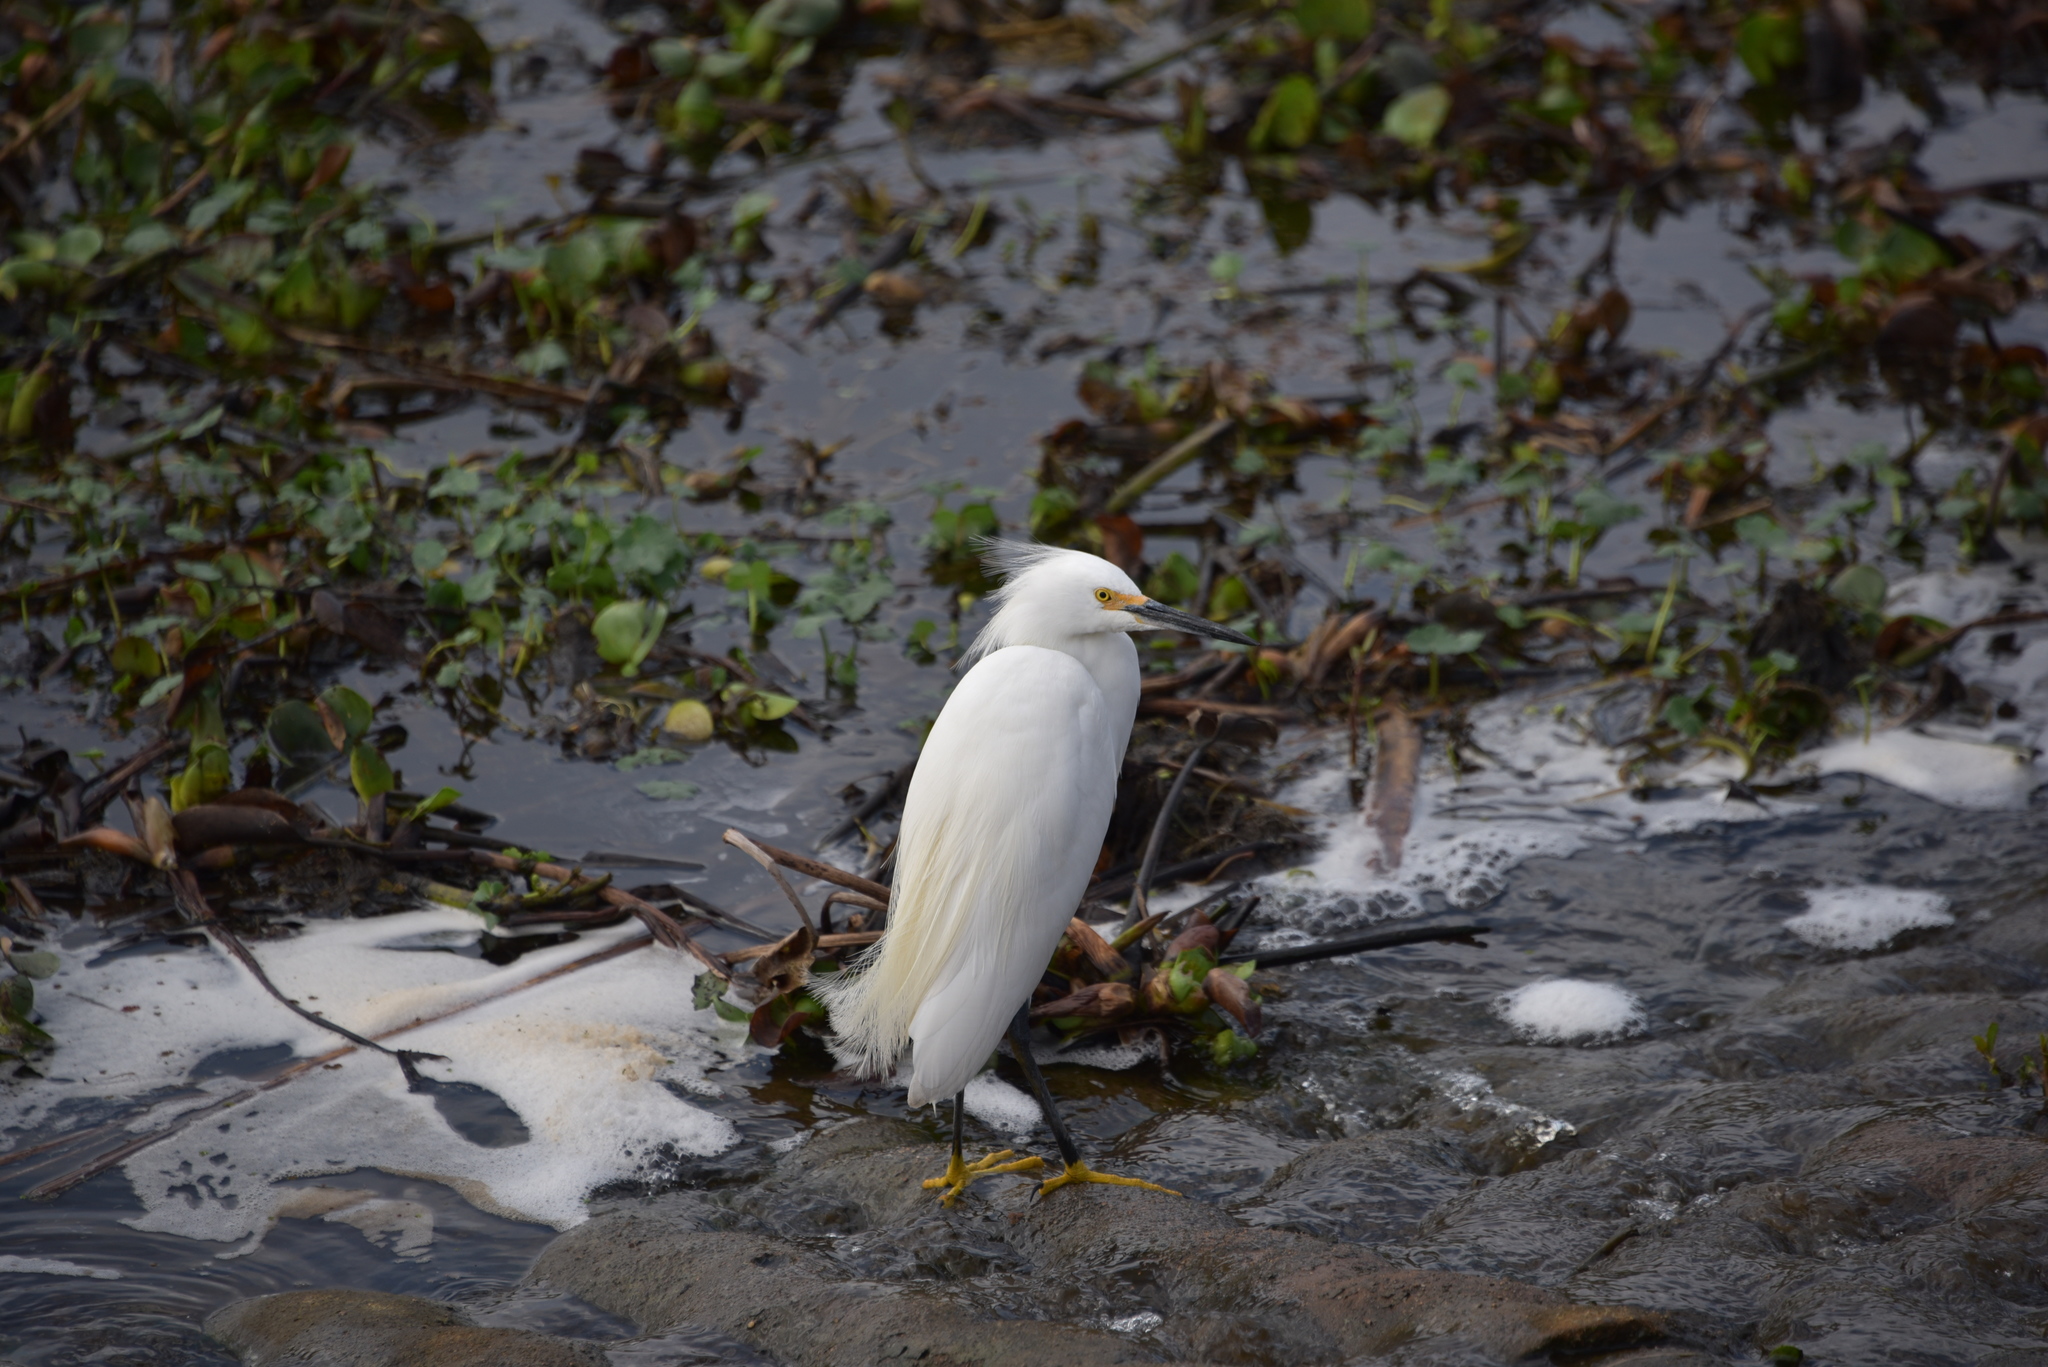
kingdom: Animalia
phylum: Chordata
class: Aves
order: Pelecaniformes
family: Ardeidae
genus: Egretta
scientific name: Egretta thula
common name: Snowy egret
